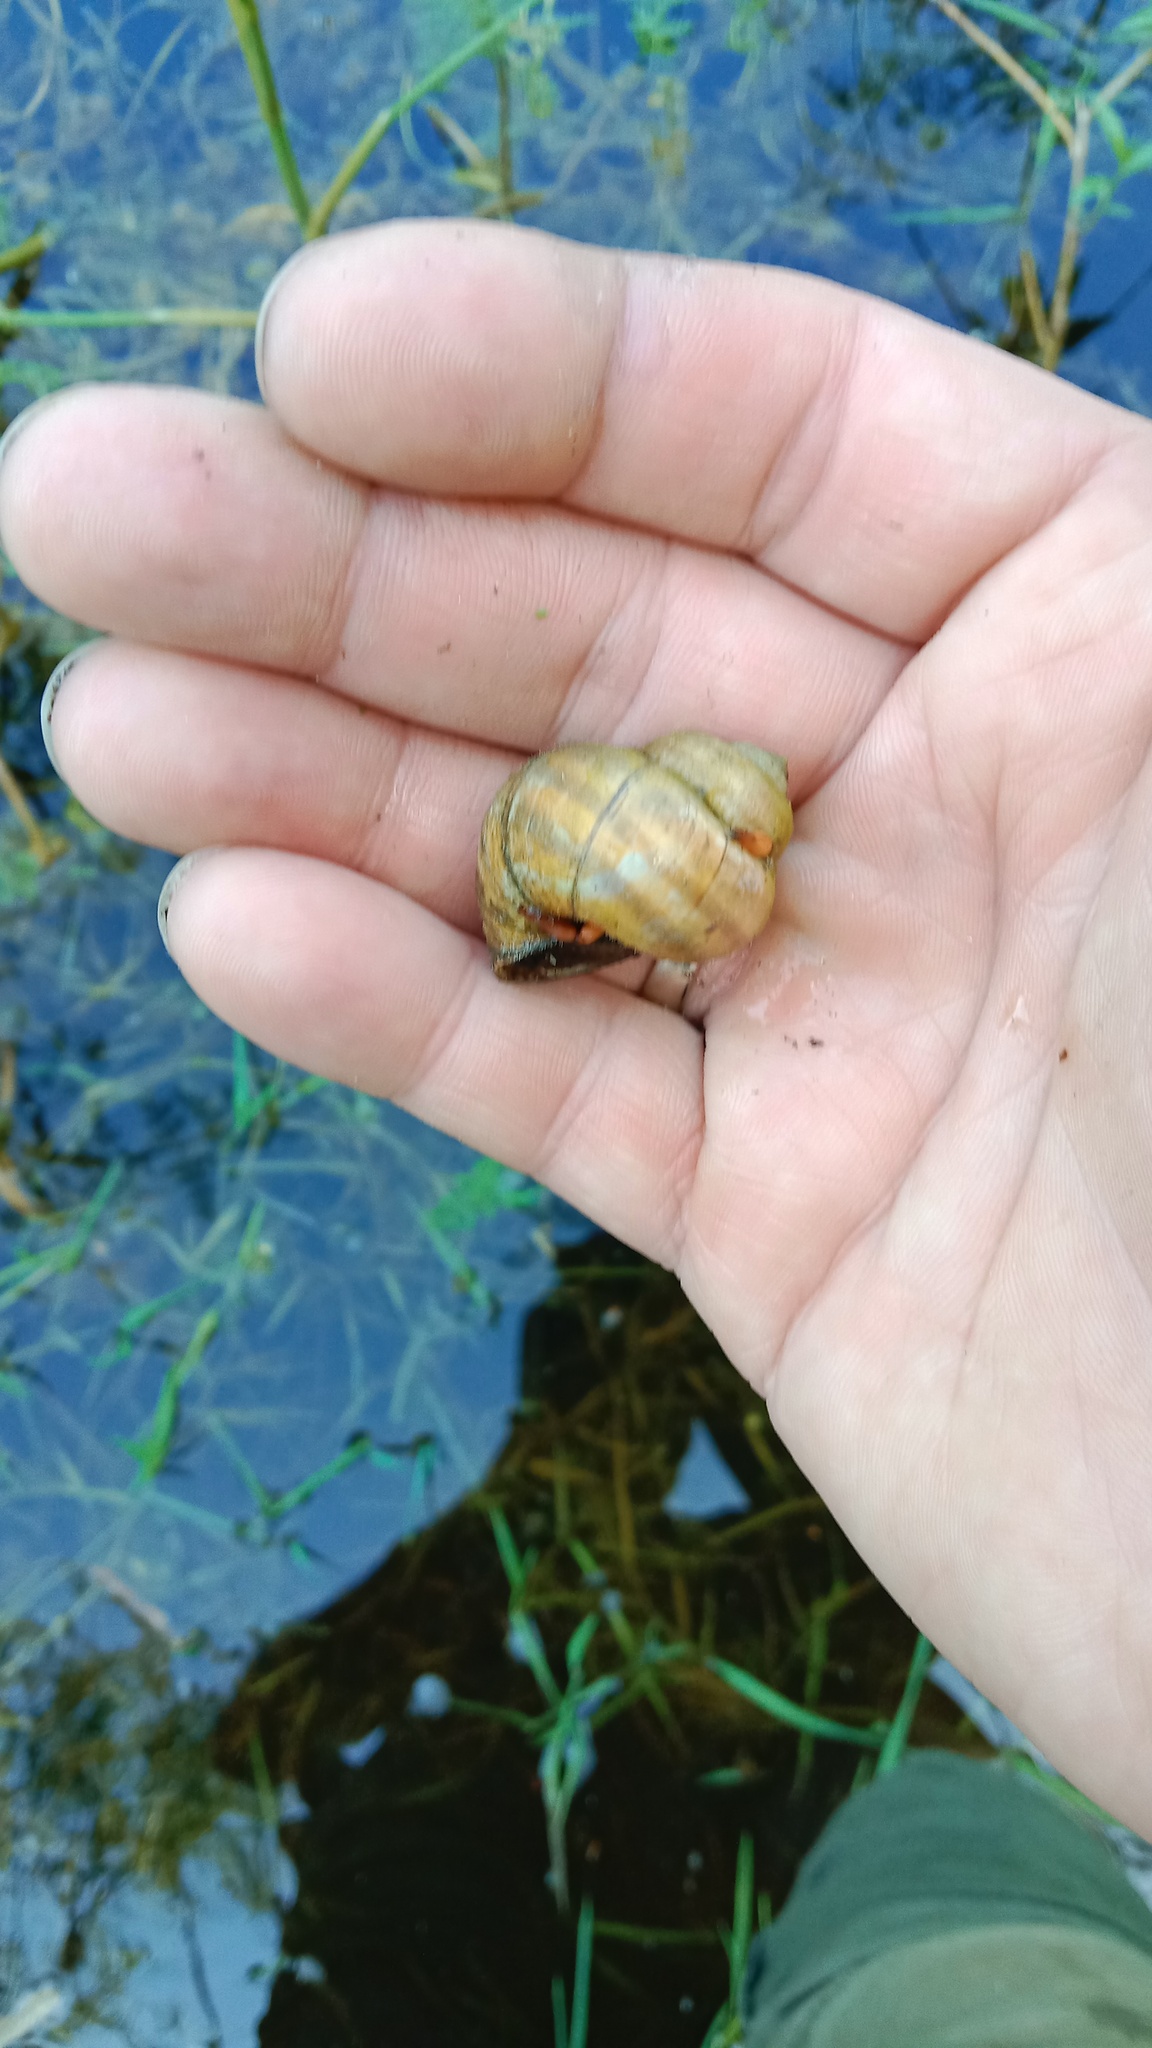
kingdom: Animalia
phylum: Mollusca
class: Gastropoda
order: Architaenioglossa
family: Viviparidae
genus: Viviparus
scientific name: Viviparus viviparus
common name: River snail
